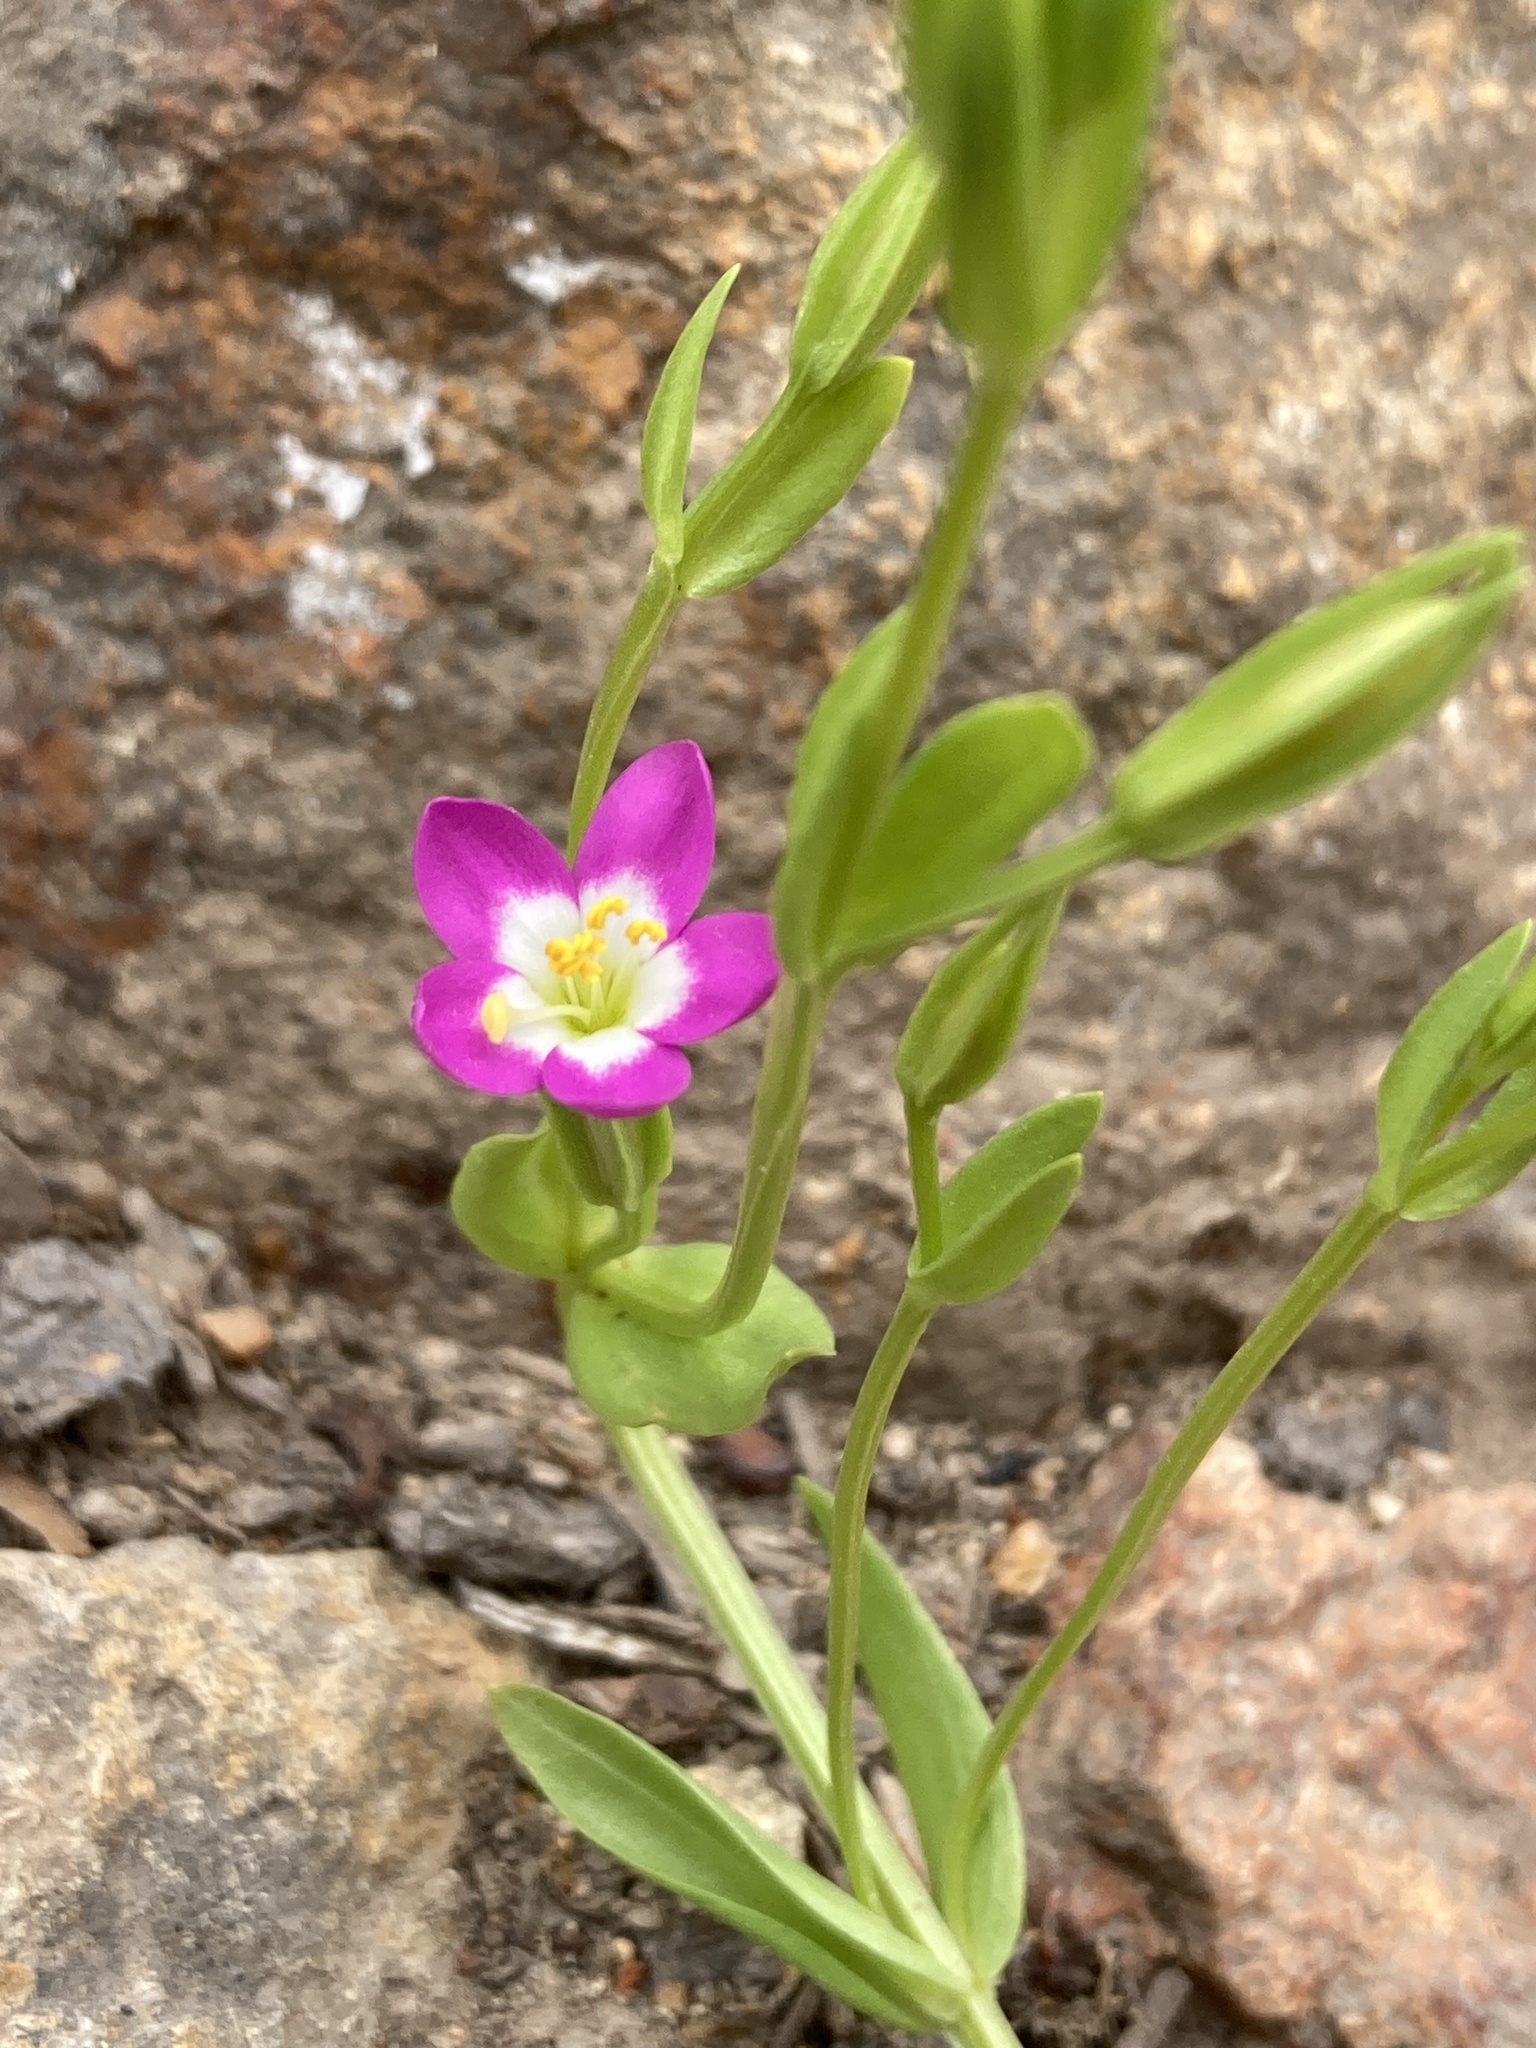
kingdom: Plantae
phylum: Tracheophyta
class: Magnoliopsida
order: Gentianales
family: Gentianaceae
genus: Zeltnera
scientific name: Zeltnera davyi
